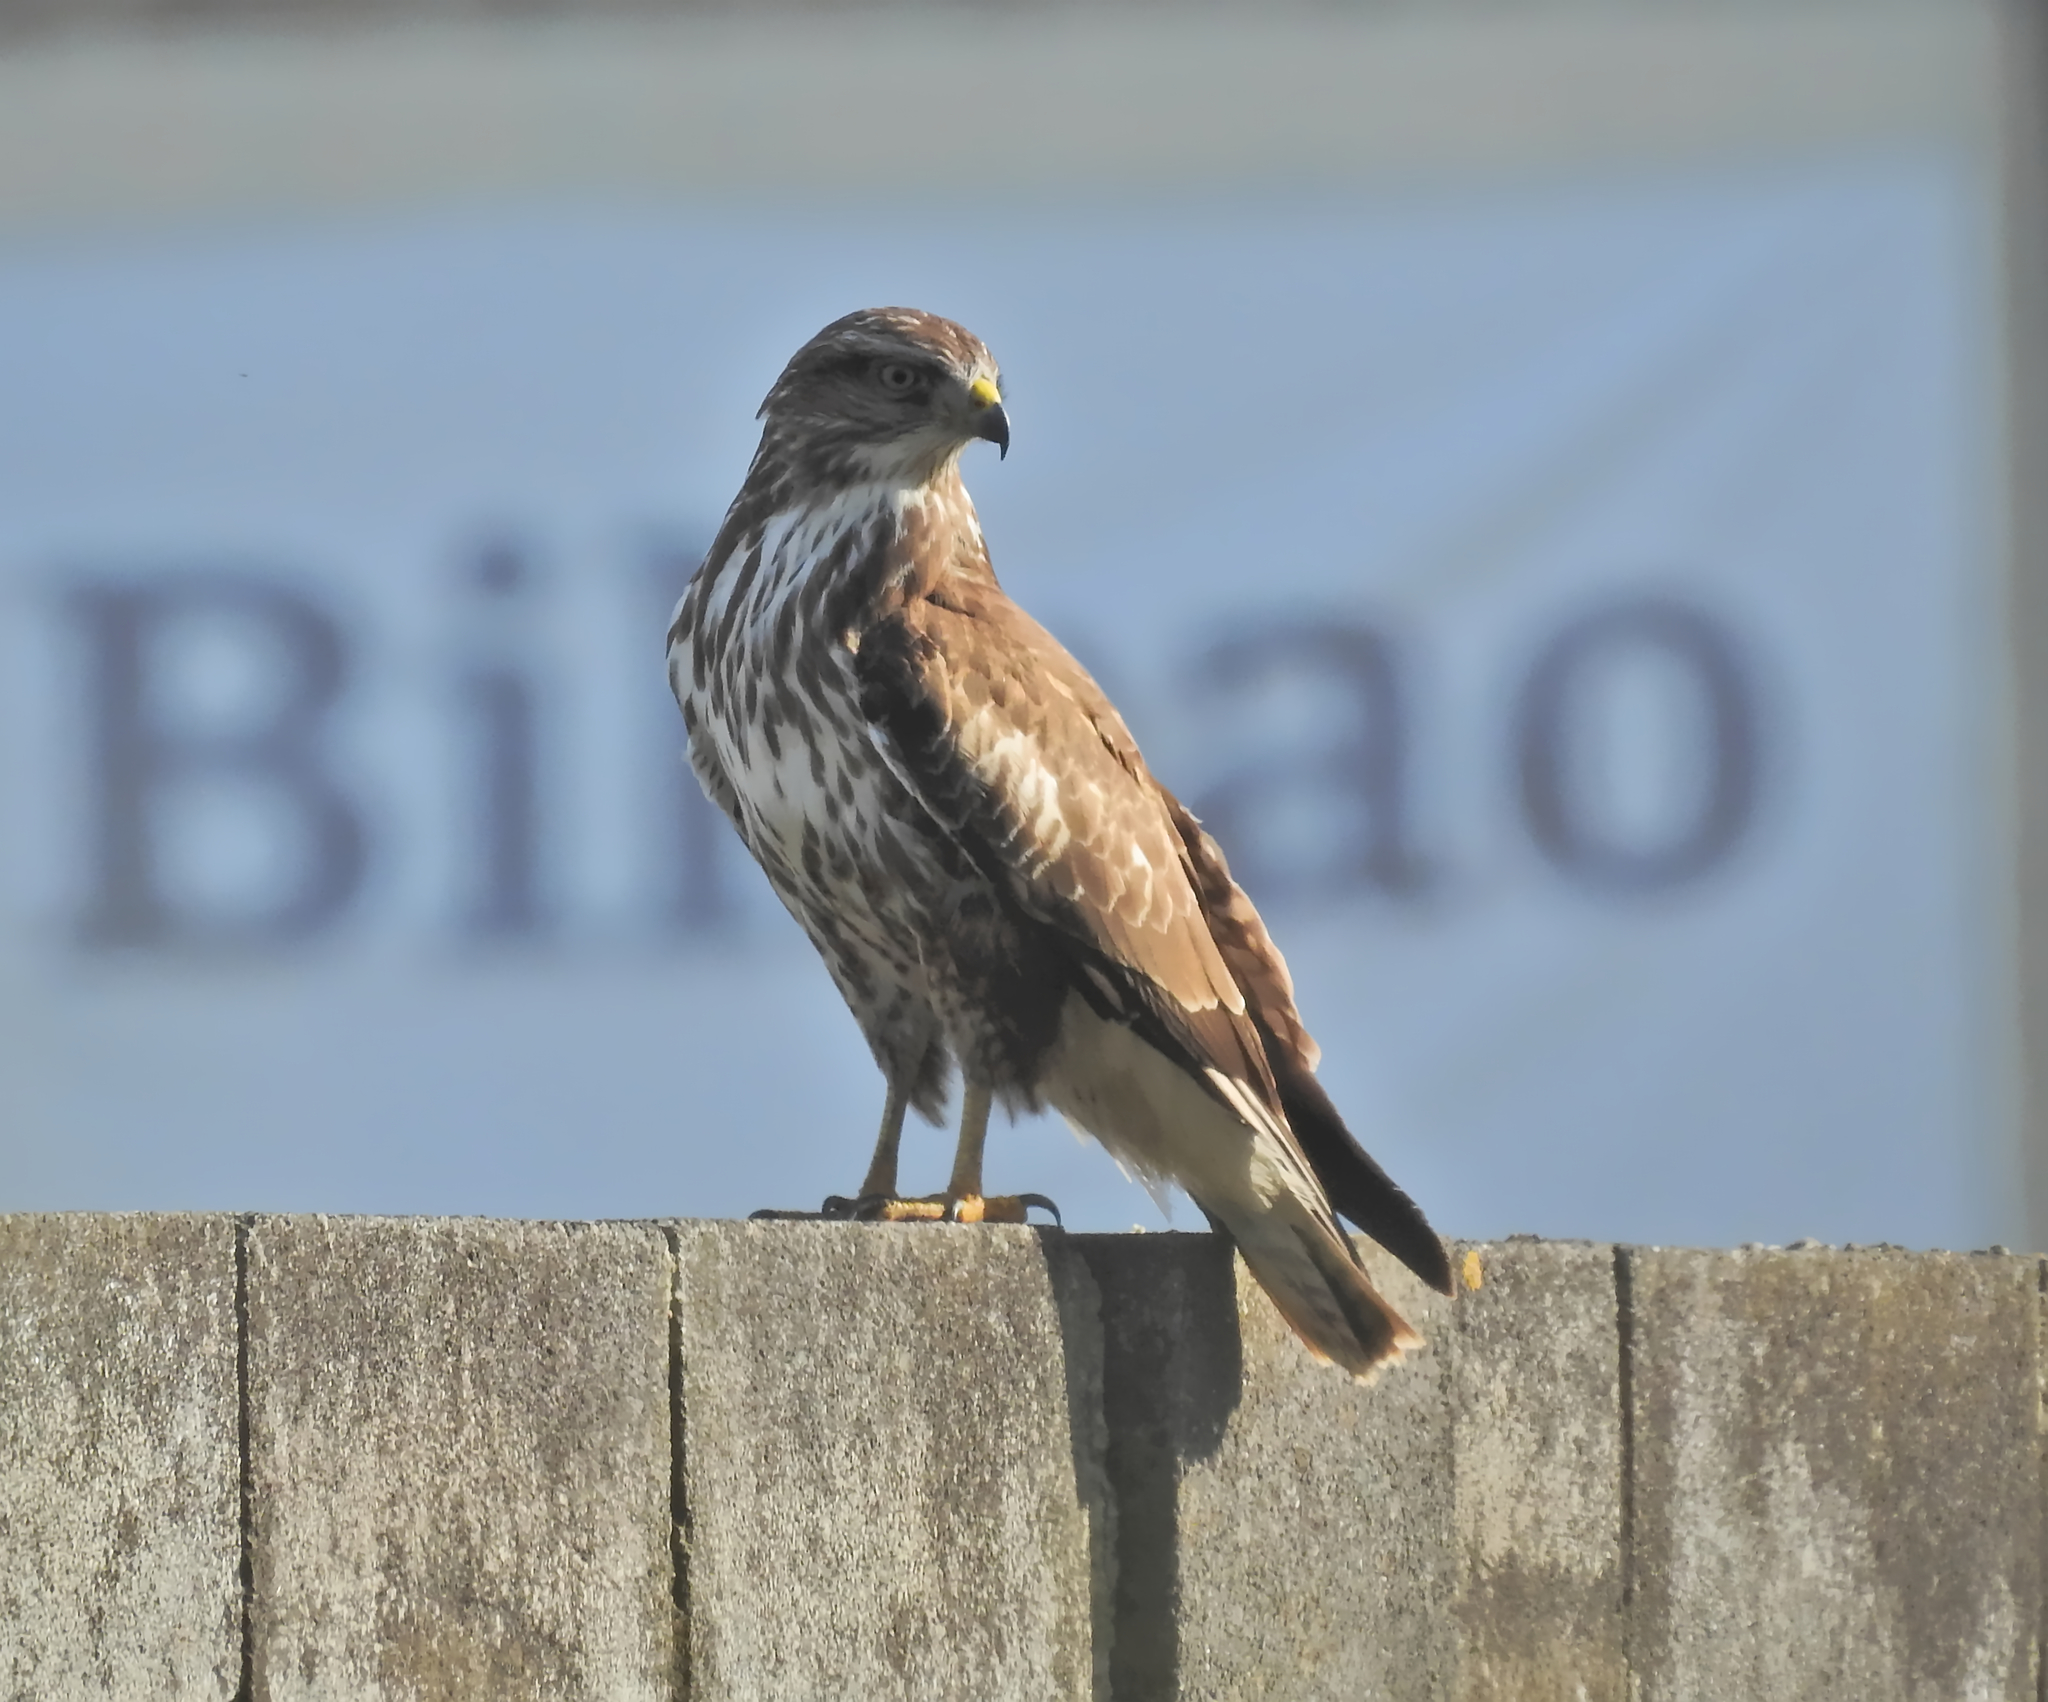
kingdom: Animalia
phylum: Chordata
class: Aves
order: Accipitriformes
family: Accipitridae
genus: Buteo
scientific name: Buteo buteo
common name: Common buzzard
